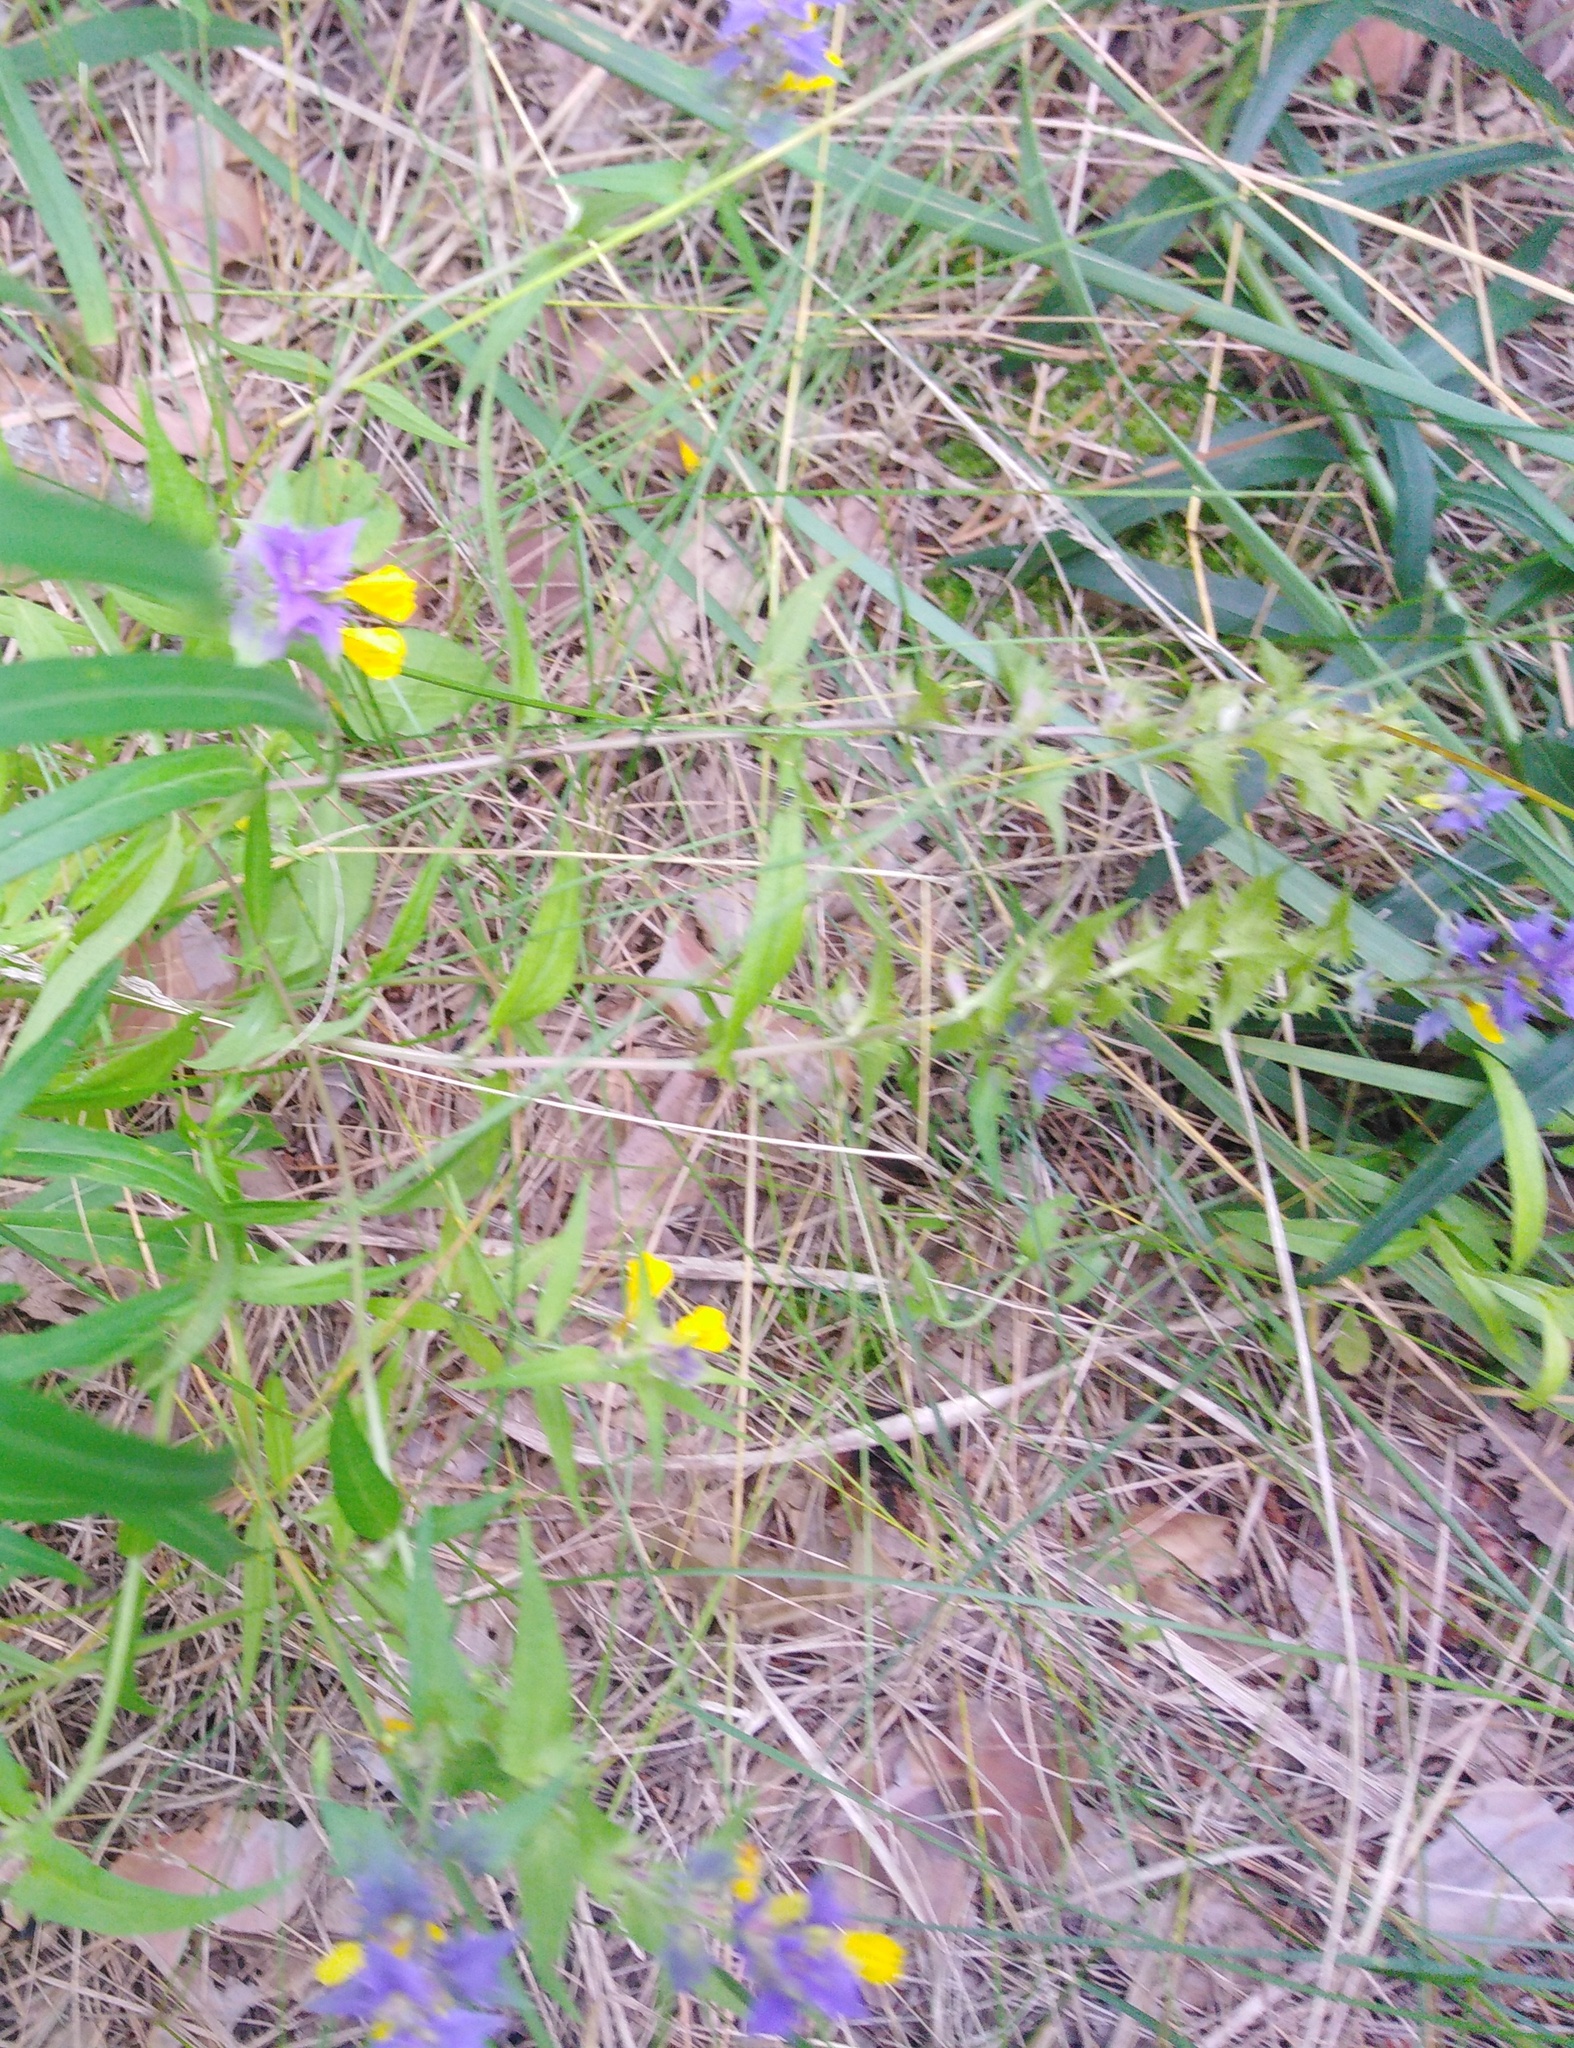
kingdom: Plantae
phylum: Tracheophyta
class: Magnoliopsida
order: Lamiales
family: Orobanchaceae
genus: Melampyrum
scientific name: Melampyrum nemorosum
